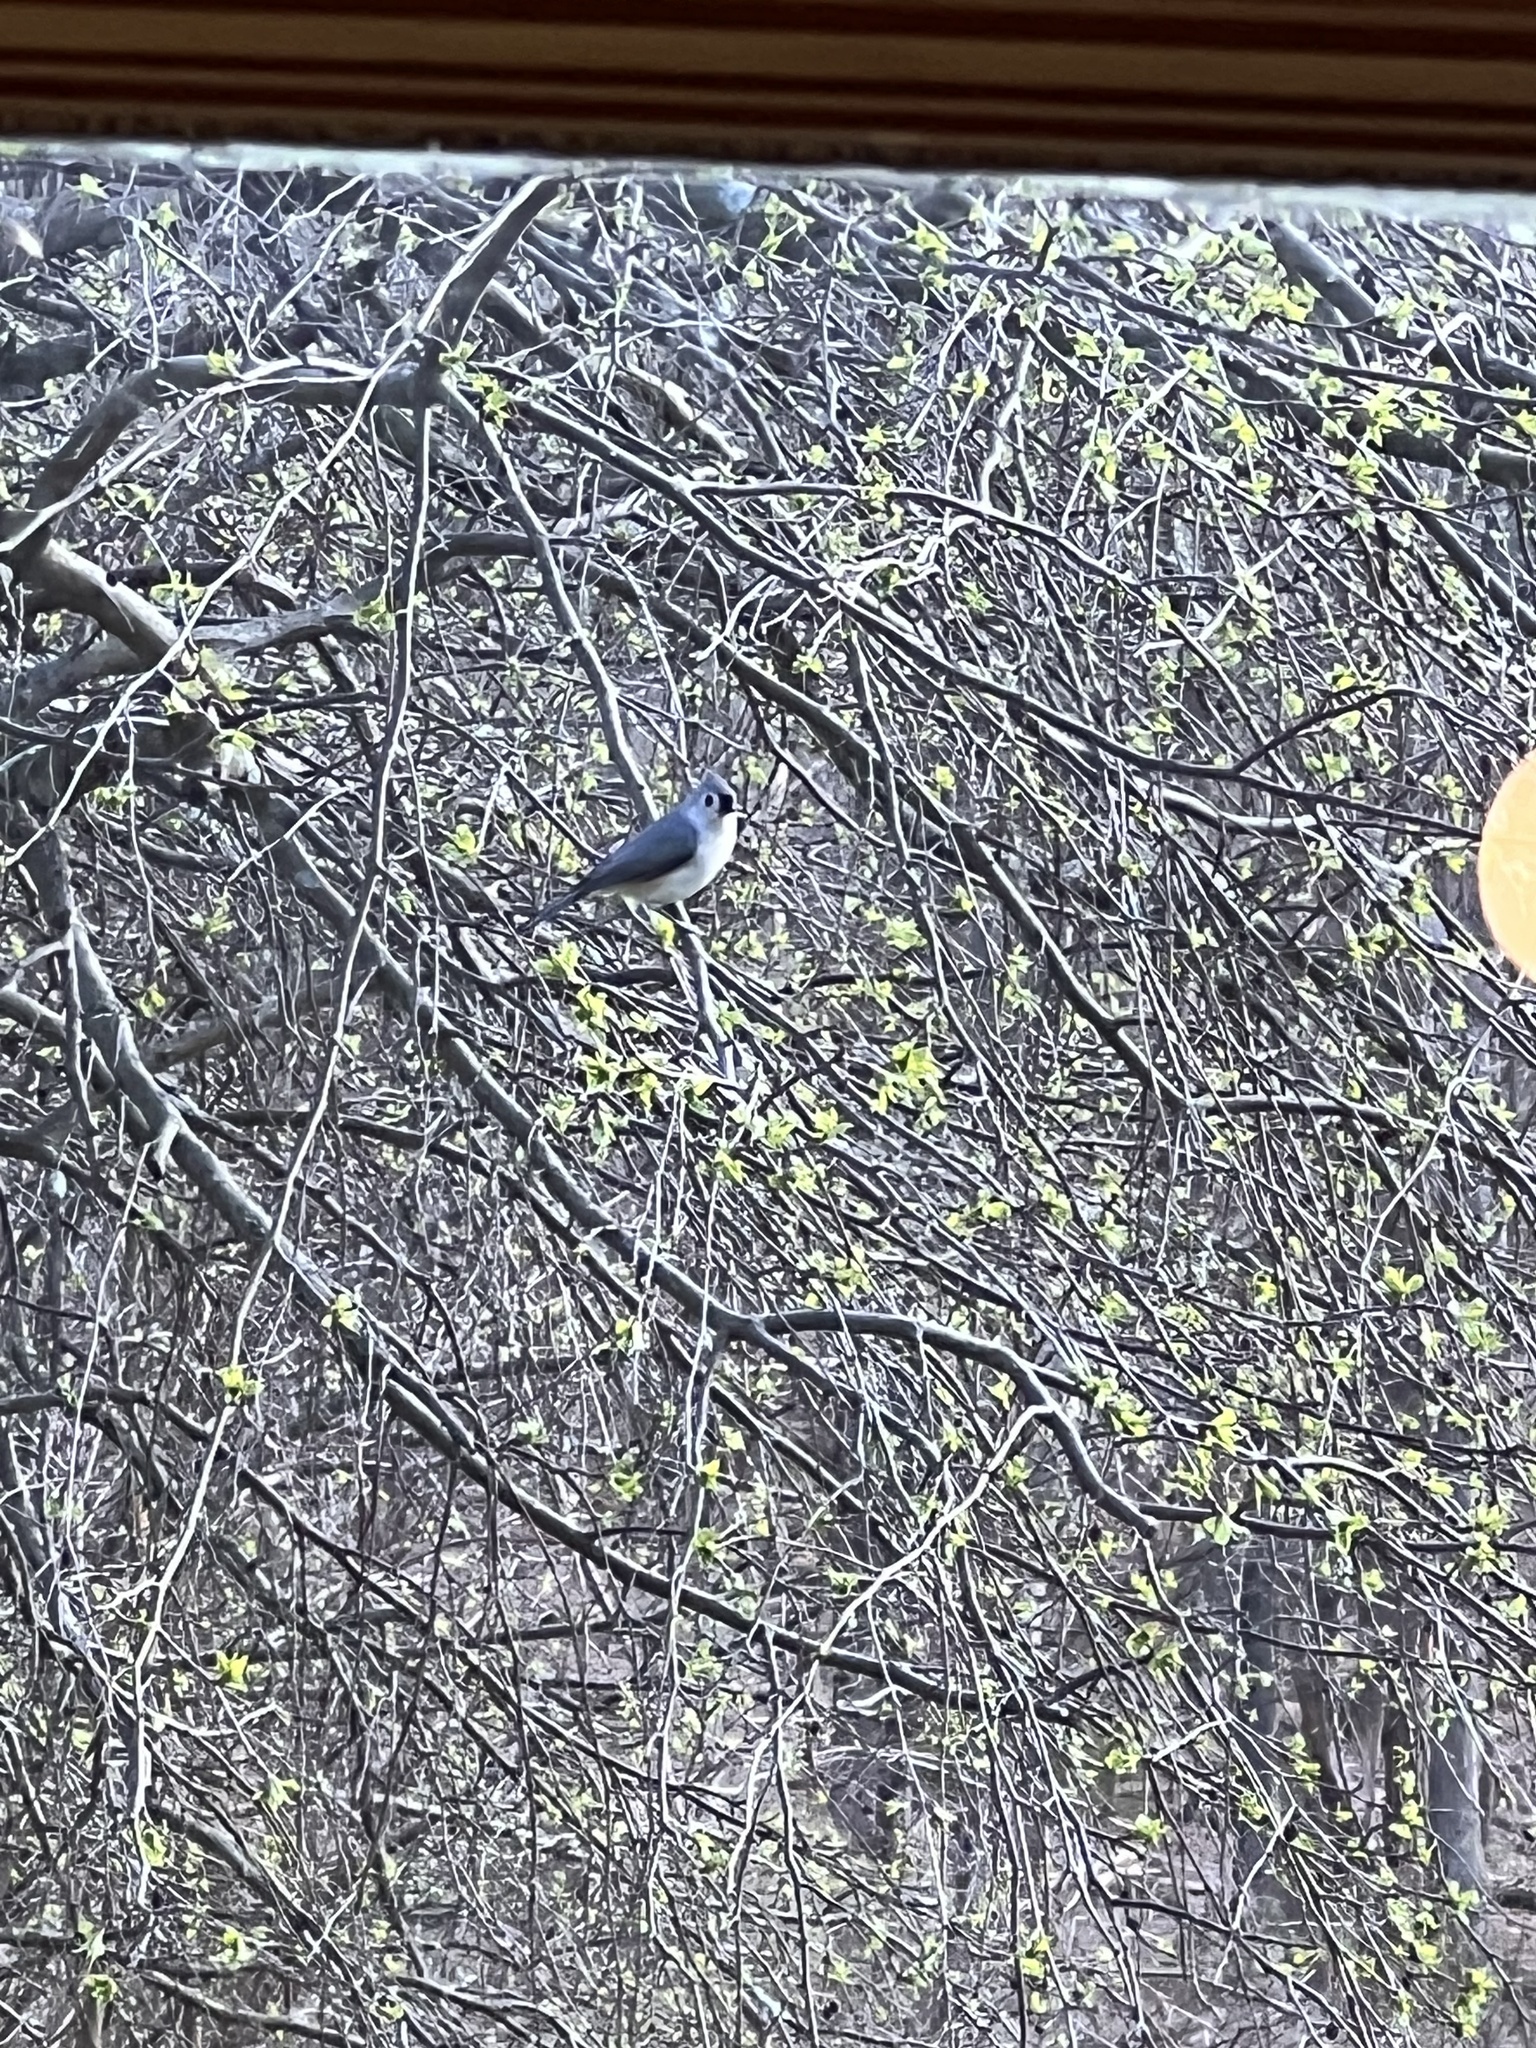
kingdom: Animalia
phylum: Chordata
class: Aves
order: Passeriformes
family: Paridae
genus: Baeolophus
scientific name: Baeolophus bicolor
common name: Tufted titmouse
